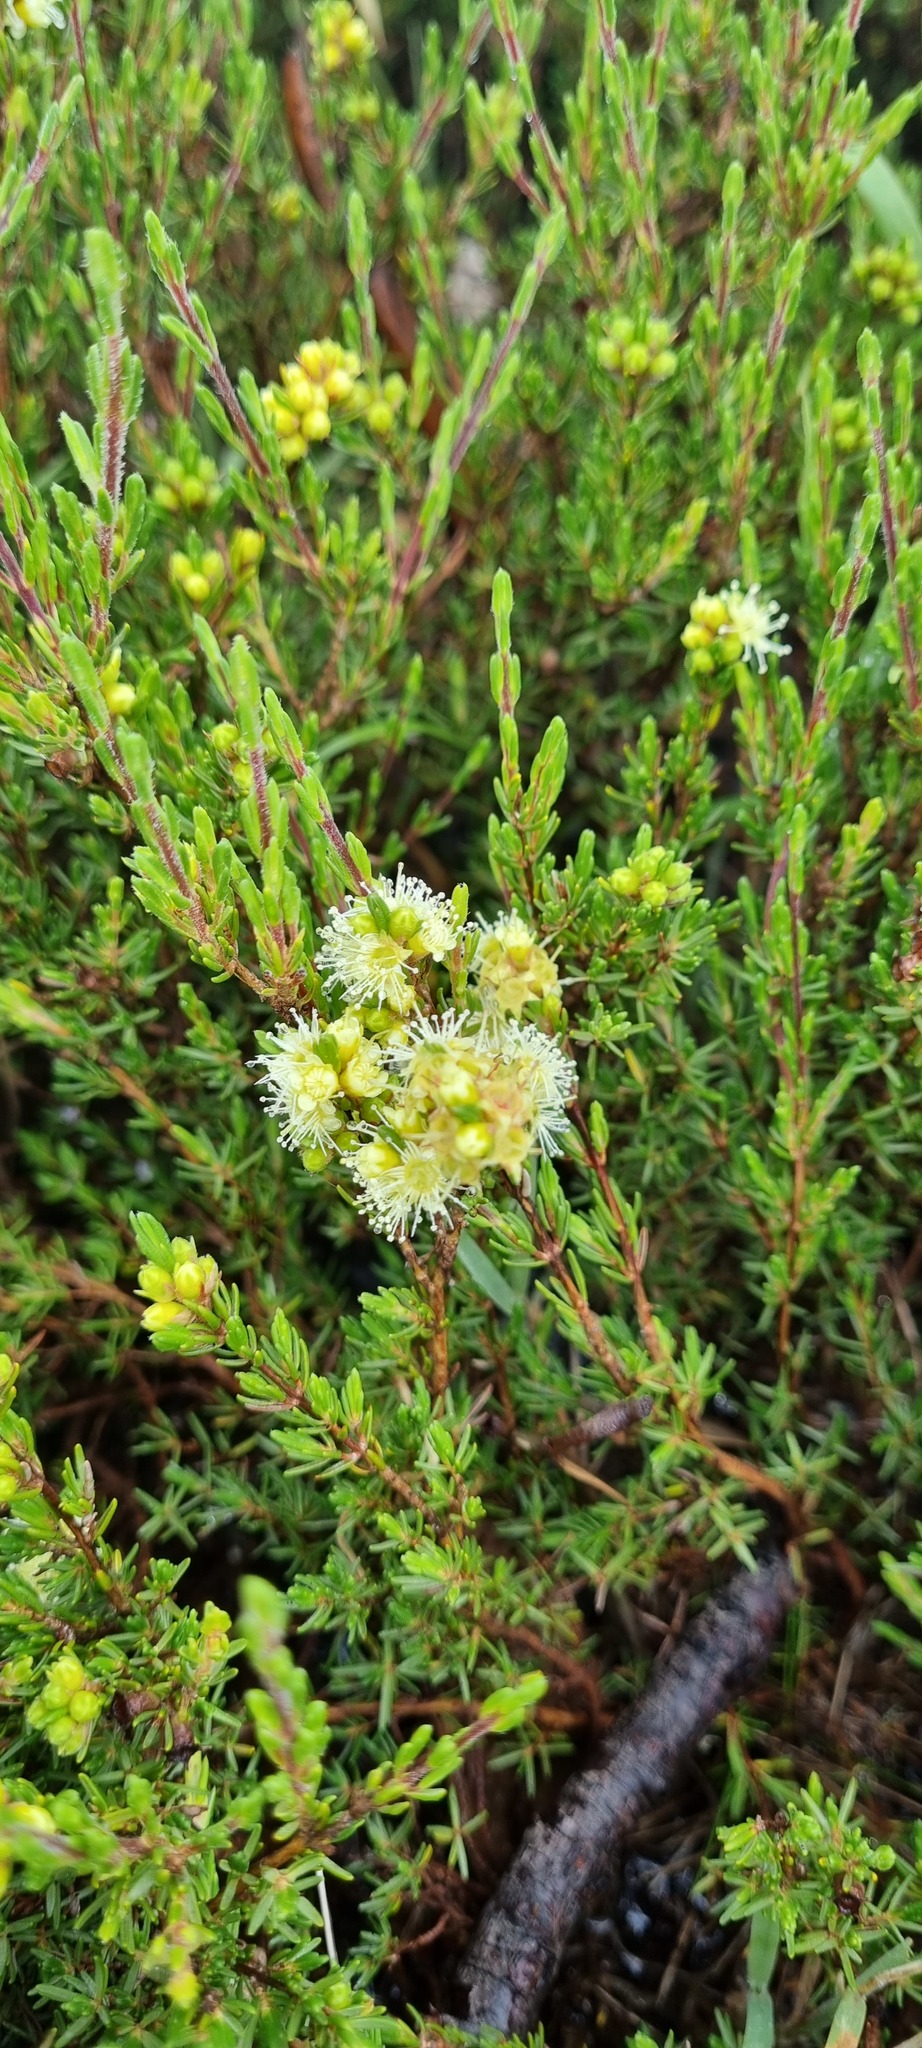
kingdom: Plantae
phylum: Tracheophyta
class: Magnoliopsida
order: Myrtales
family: Myrtaceae
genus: Kunzea
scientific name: Kunzea muelleri
